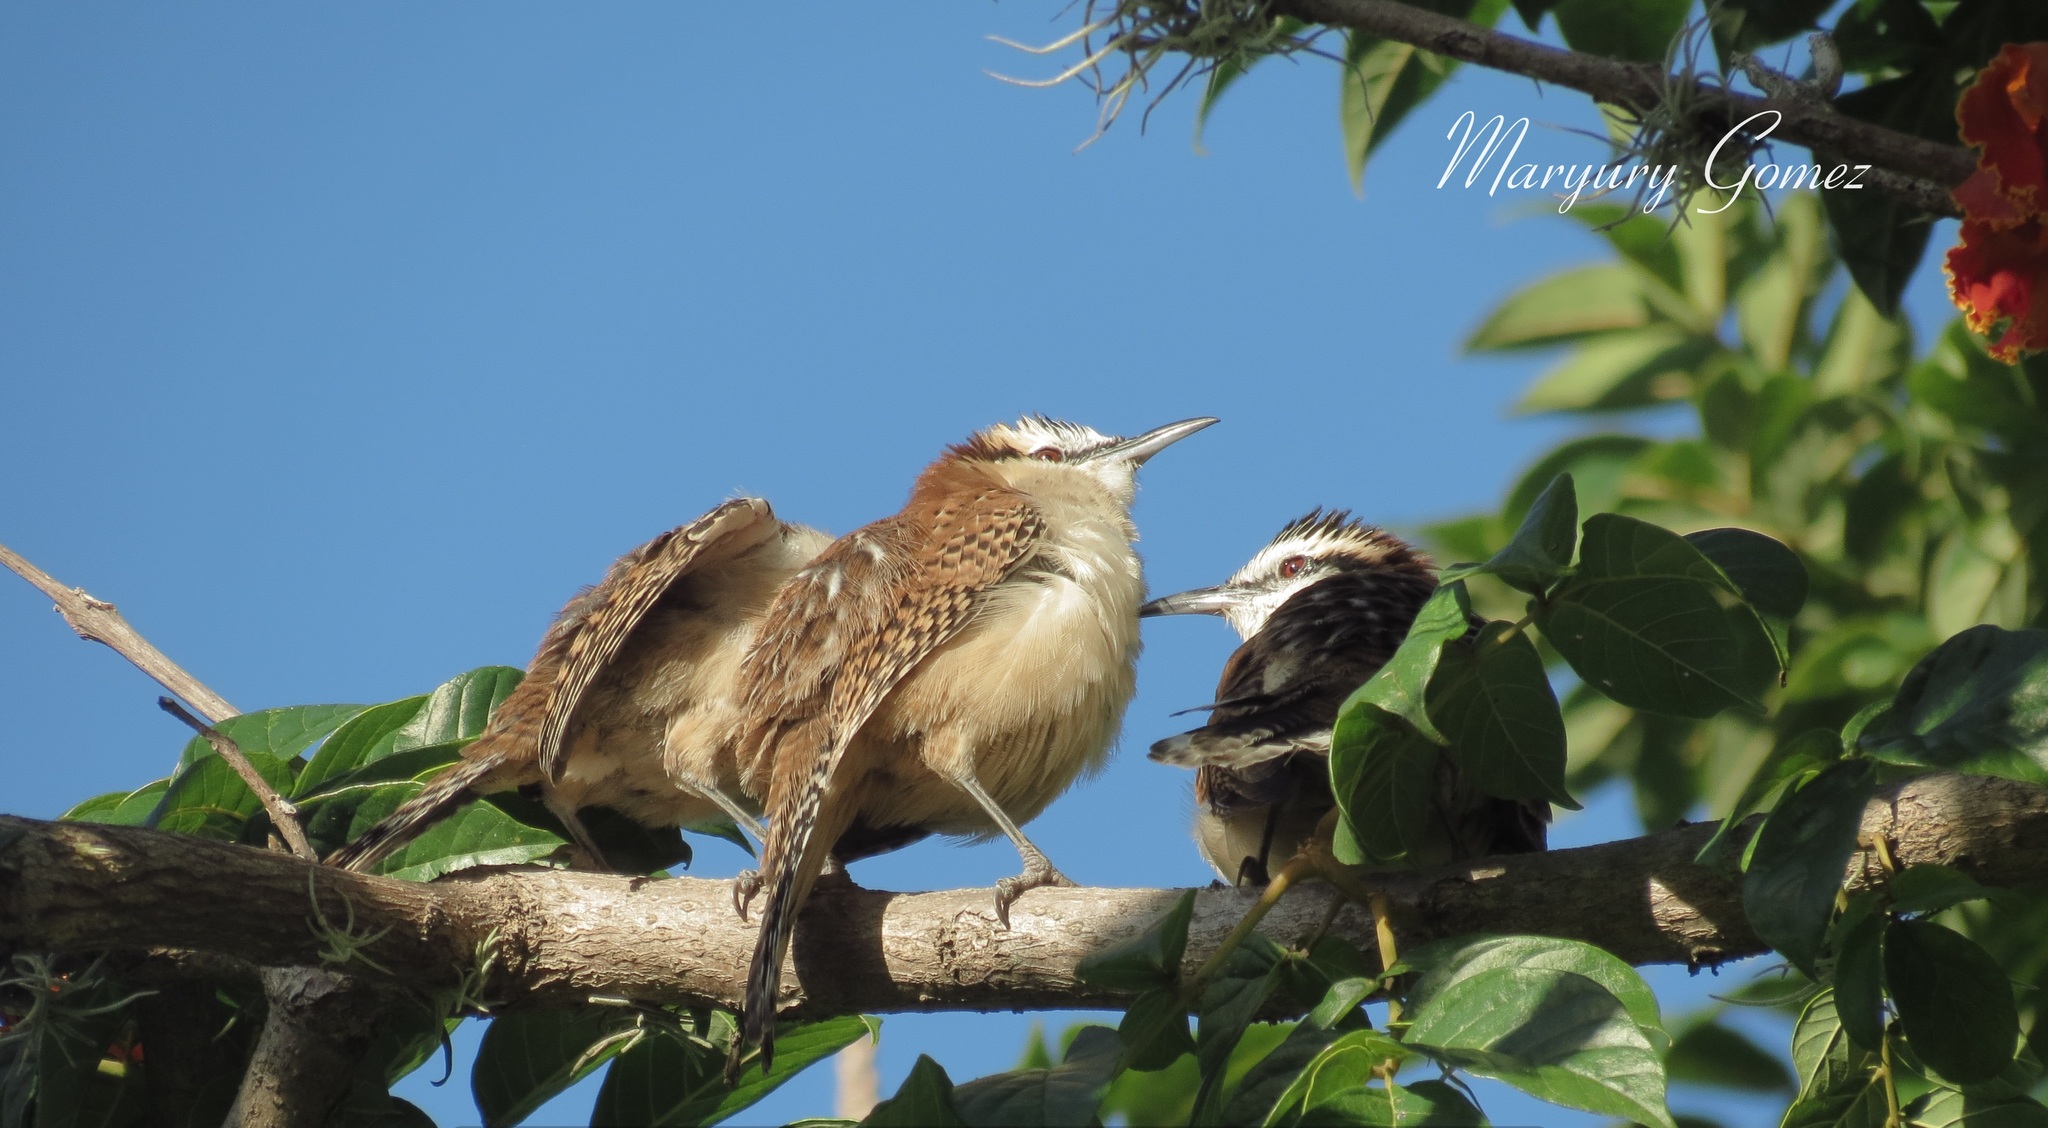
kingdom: Animalia
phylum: Chordata
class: Aves
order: Passeriformes
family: Troglodytidae
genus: Campylorhynchus
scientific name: Campylorhynchus rufinucha
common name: Rufous-naped wren
